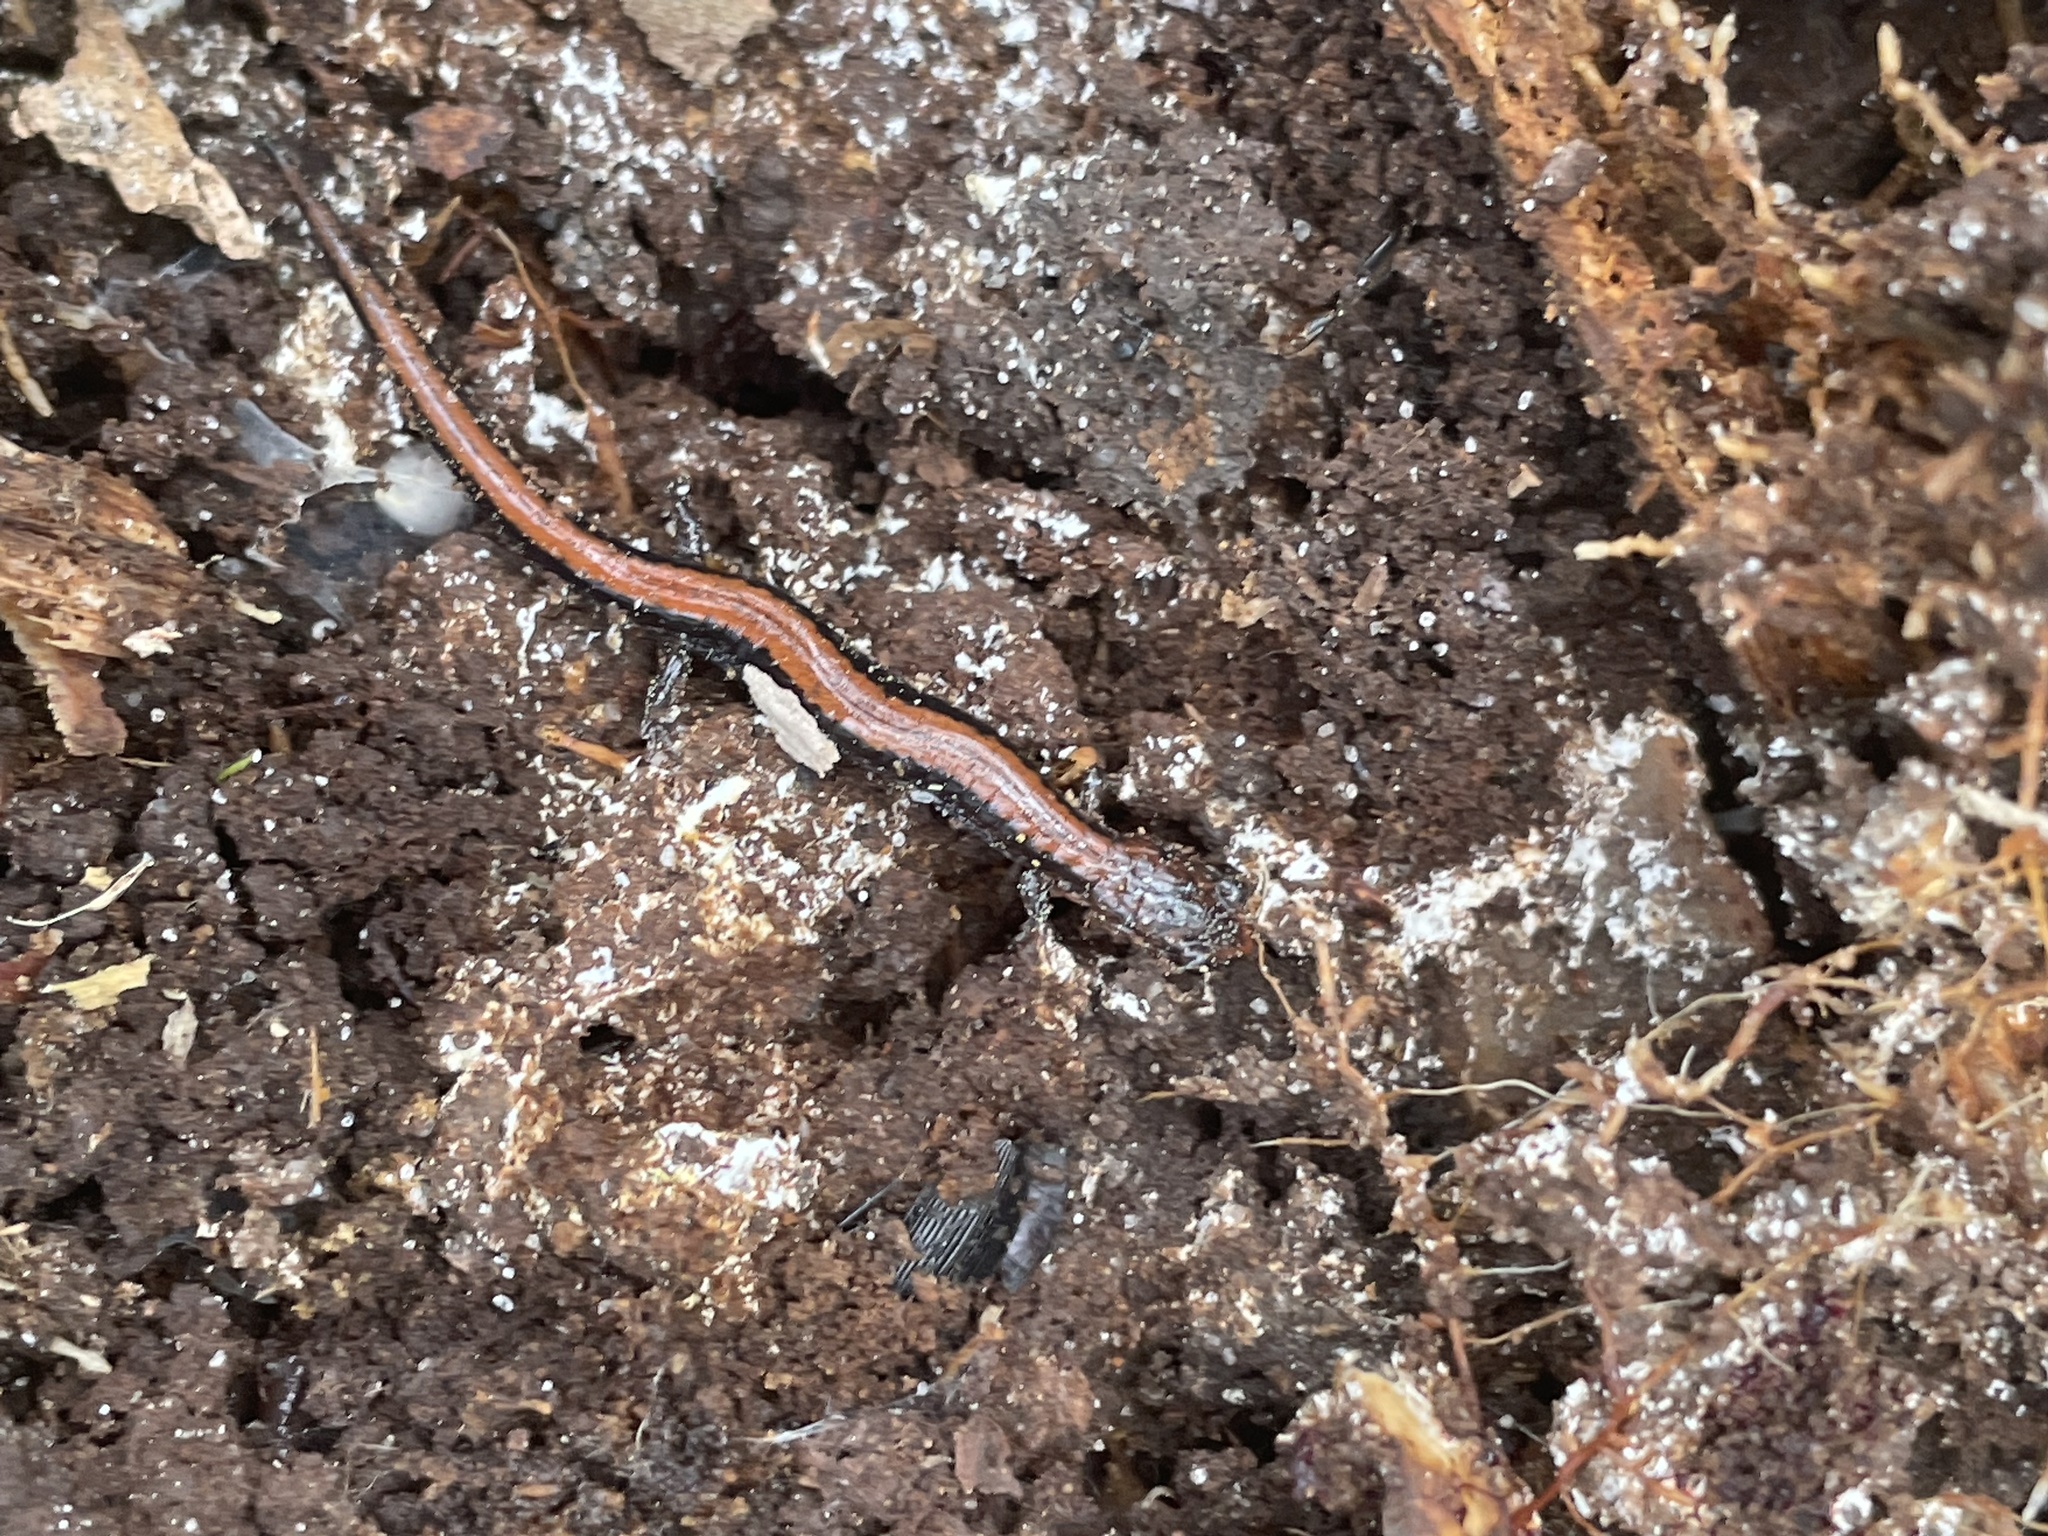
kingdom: Animalia
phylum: Chordata
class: Amphibia
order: Caudata
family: Plethodontidae
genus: Plethodon
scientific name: Plethodon cinereus
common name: Redback salamander
